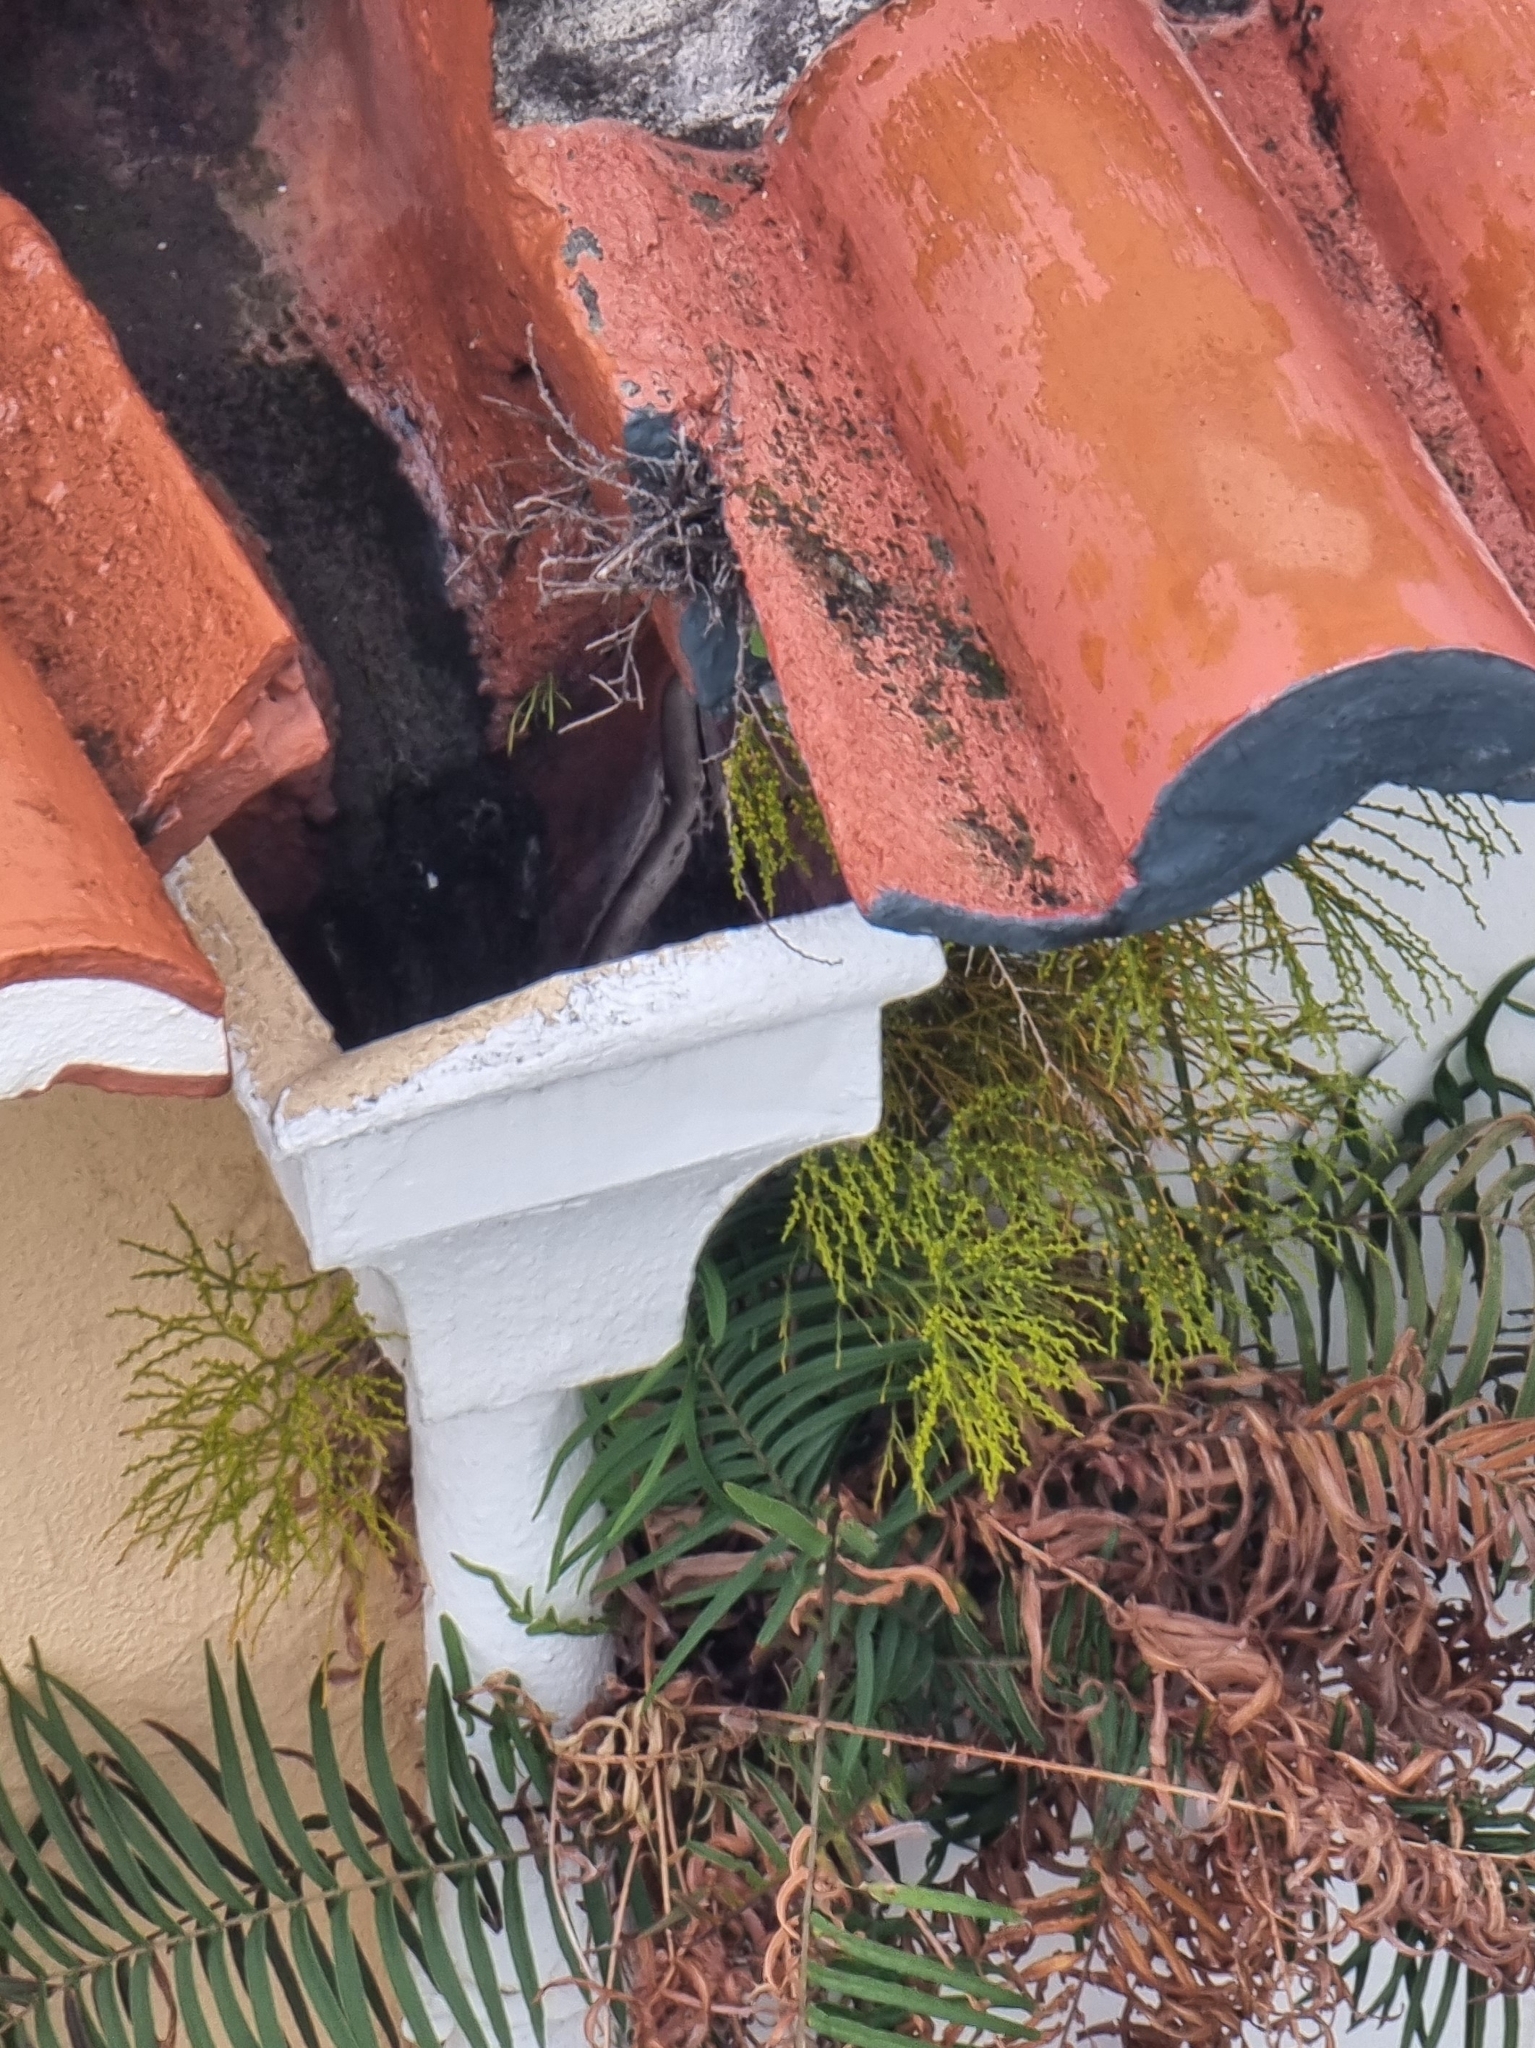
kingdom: Plantae
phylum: Tracheophyta
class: Polypodiopsida
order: Psilotales
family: Psilotaceae
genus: Psilotum
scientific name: Psilotum nudum
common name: Skeleton fork fern
